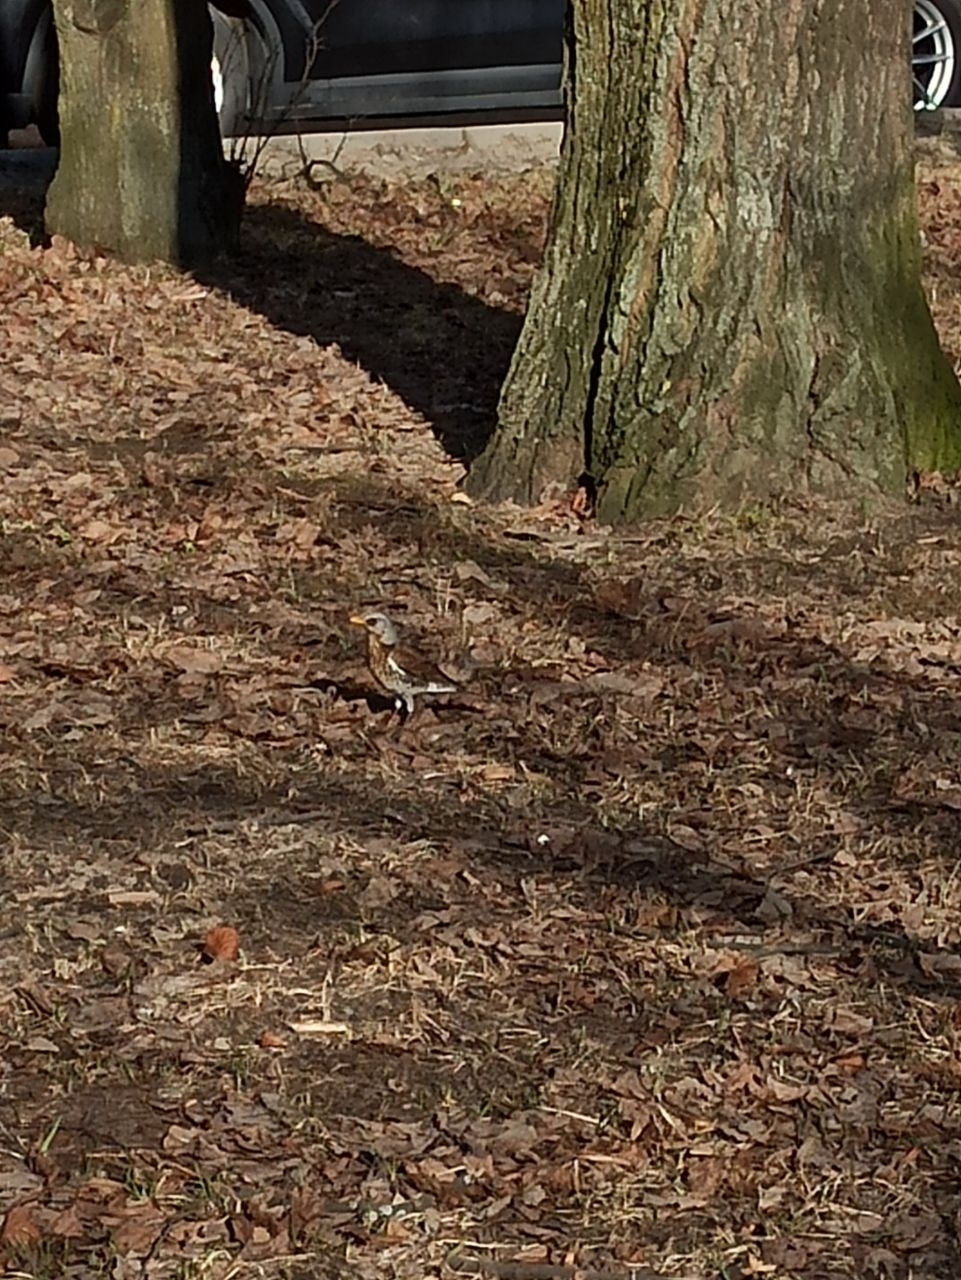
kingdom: Animalia
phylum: Chordata
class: Aves
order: Passeriformes
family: Turdidae
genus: Turdus
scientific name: Turdus pilaris
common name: Fieldfare
